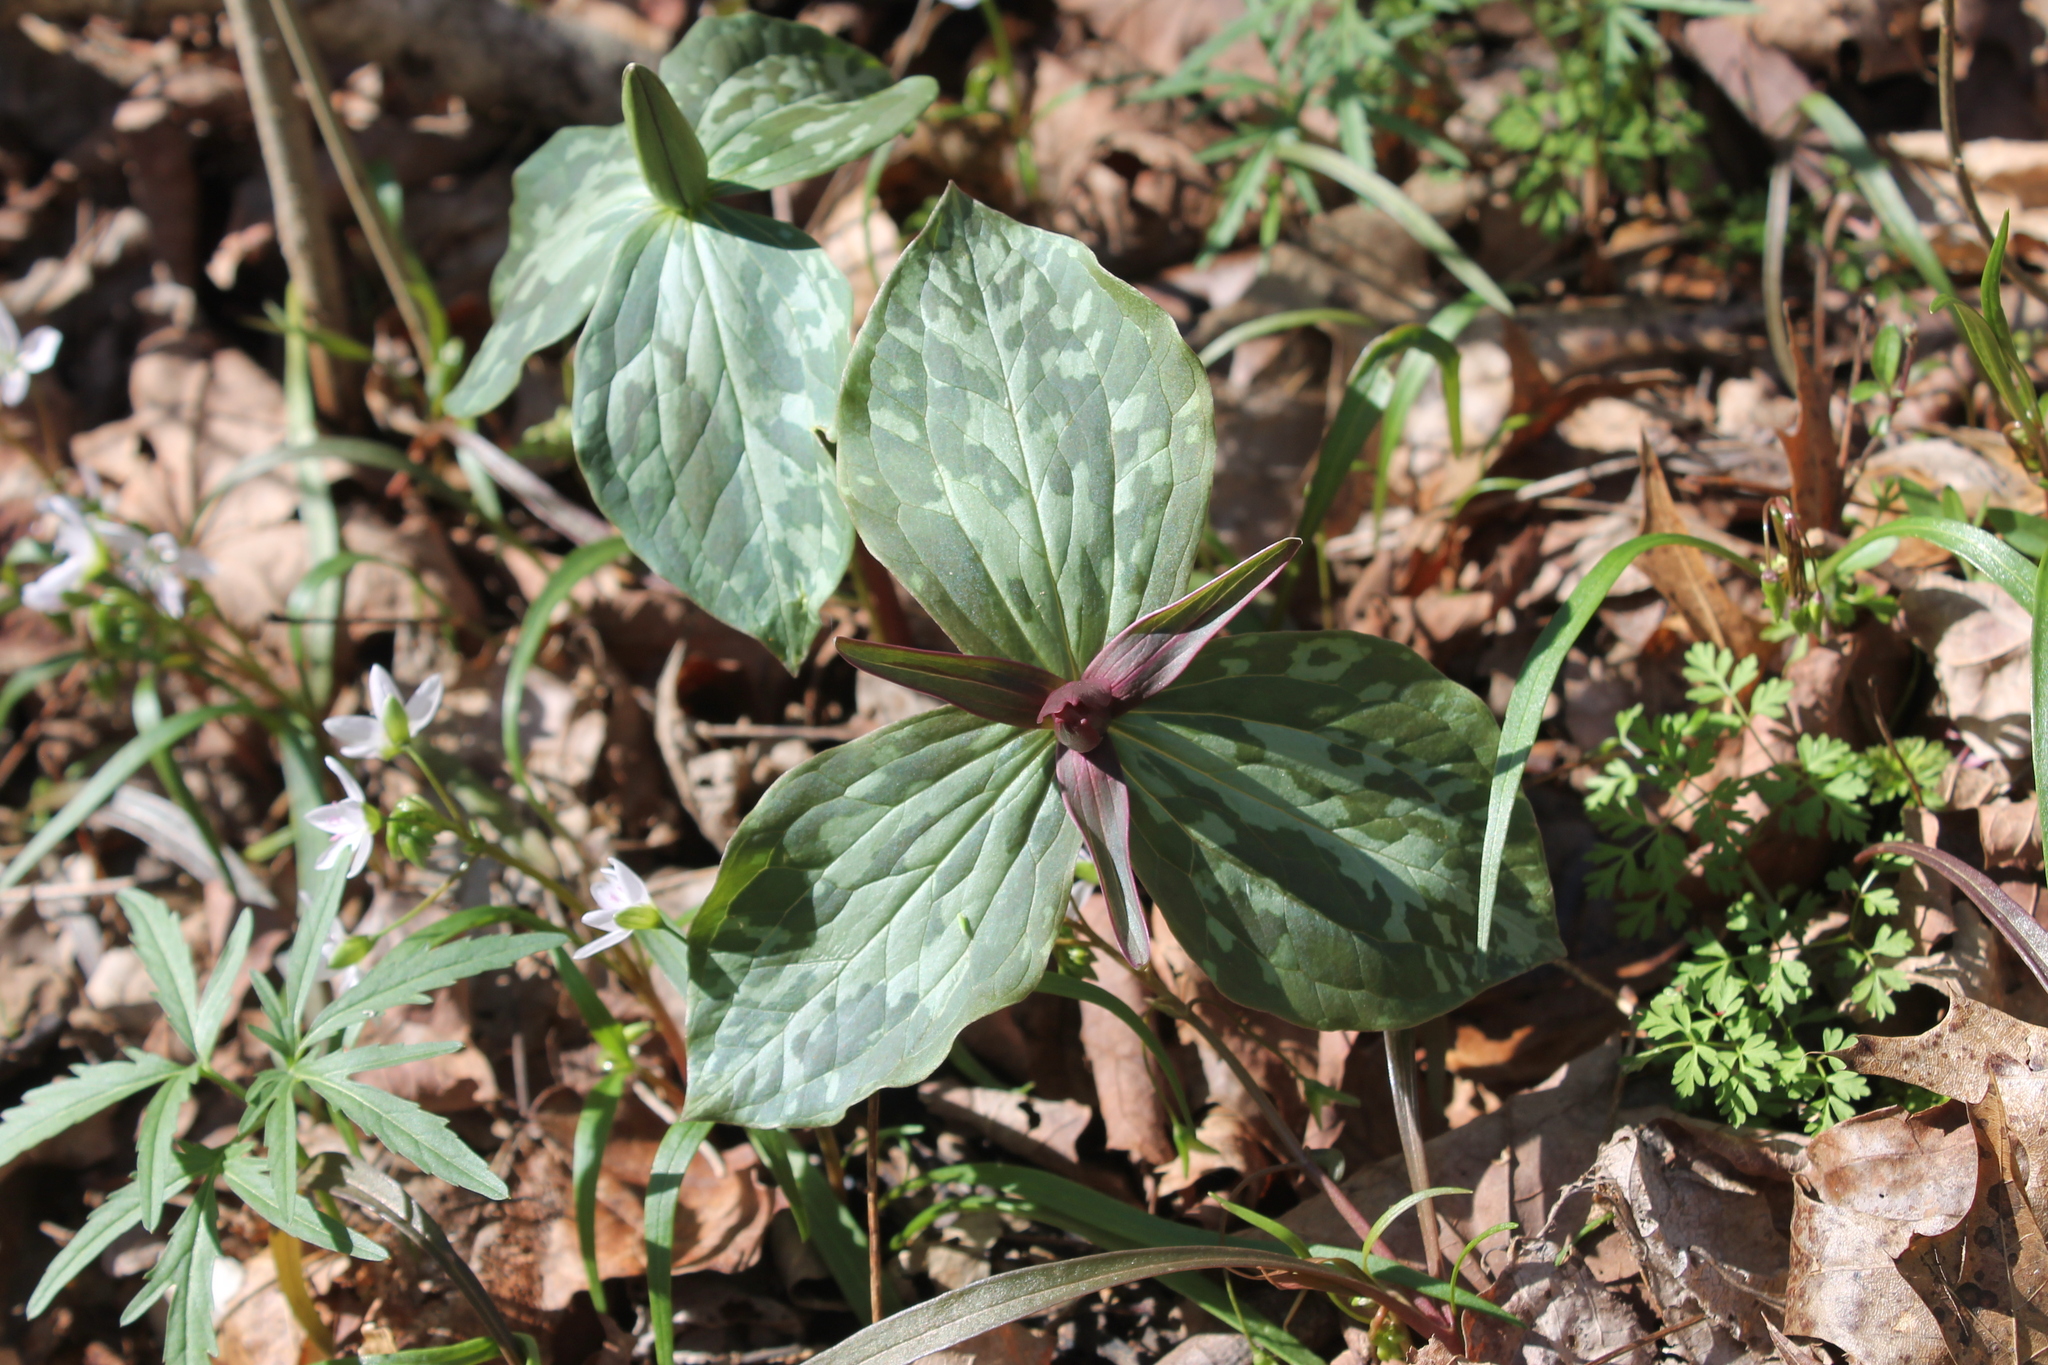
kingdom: Plantae
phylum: Tracheophyta
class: Liliopsida
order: Liliales
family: Melanthiaceae
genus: Trillium
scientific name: Trillium cuneatum
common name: Cuneate trillium
